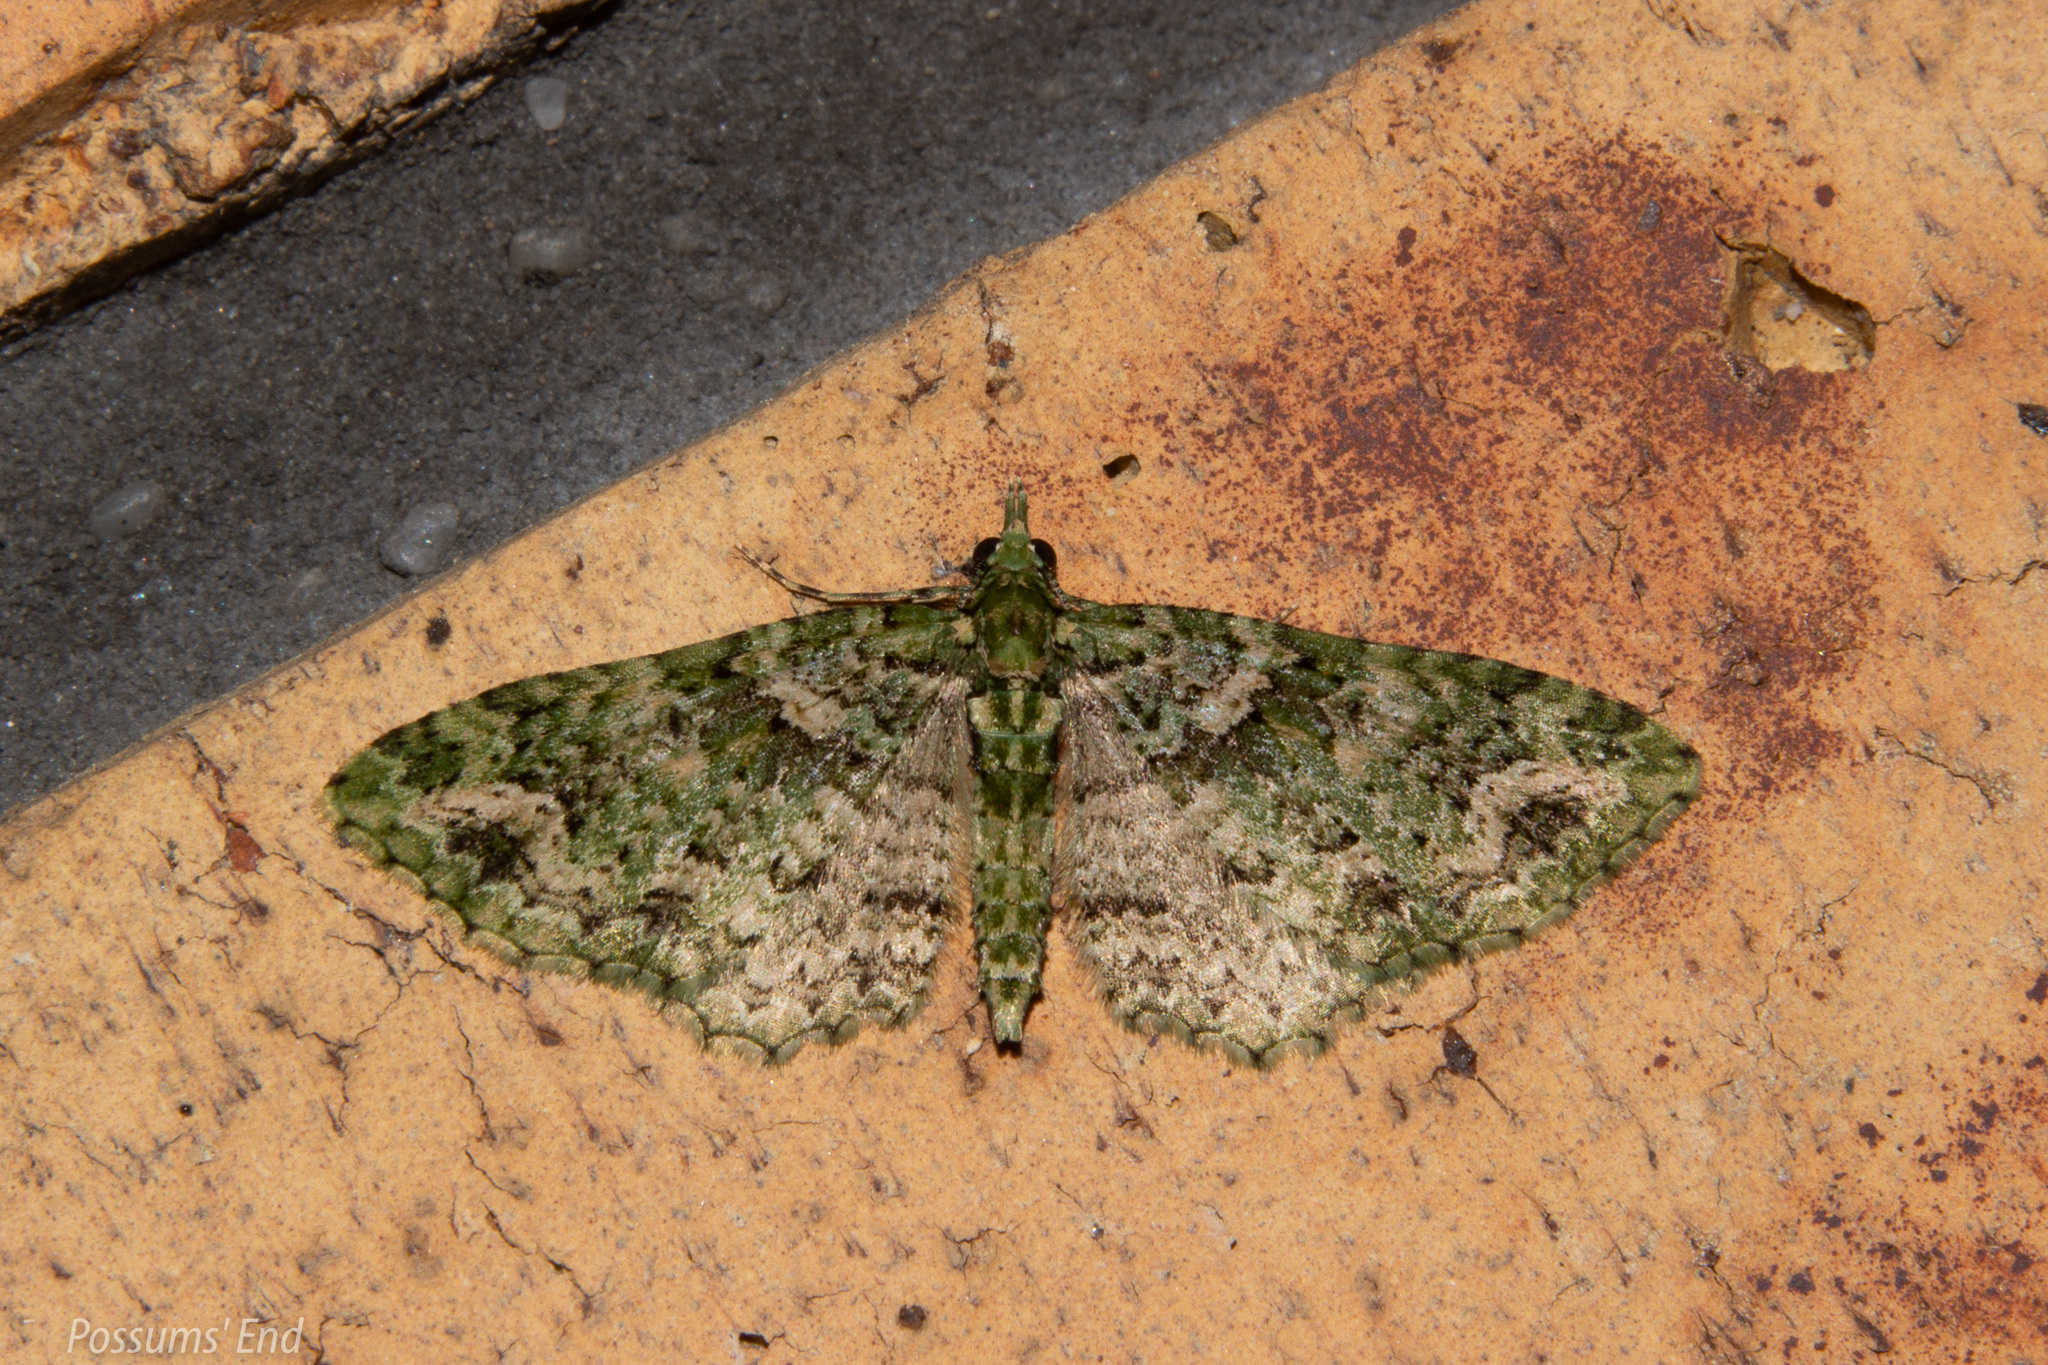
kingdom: Animalia
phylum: Arthropoda
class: Insecta
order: Lepidoptera
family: Geometridae
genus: Pasiphila
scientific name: Pasiphila muscosata
